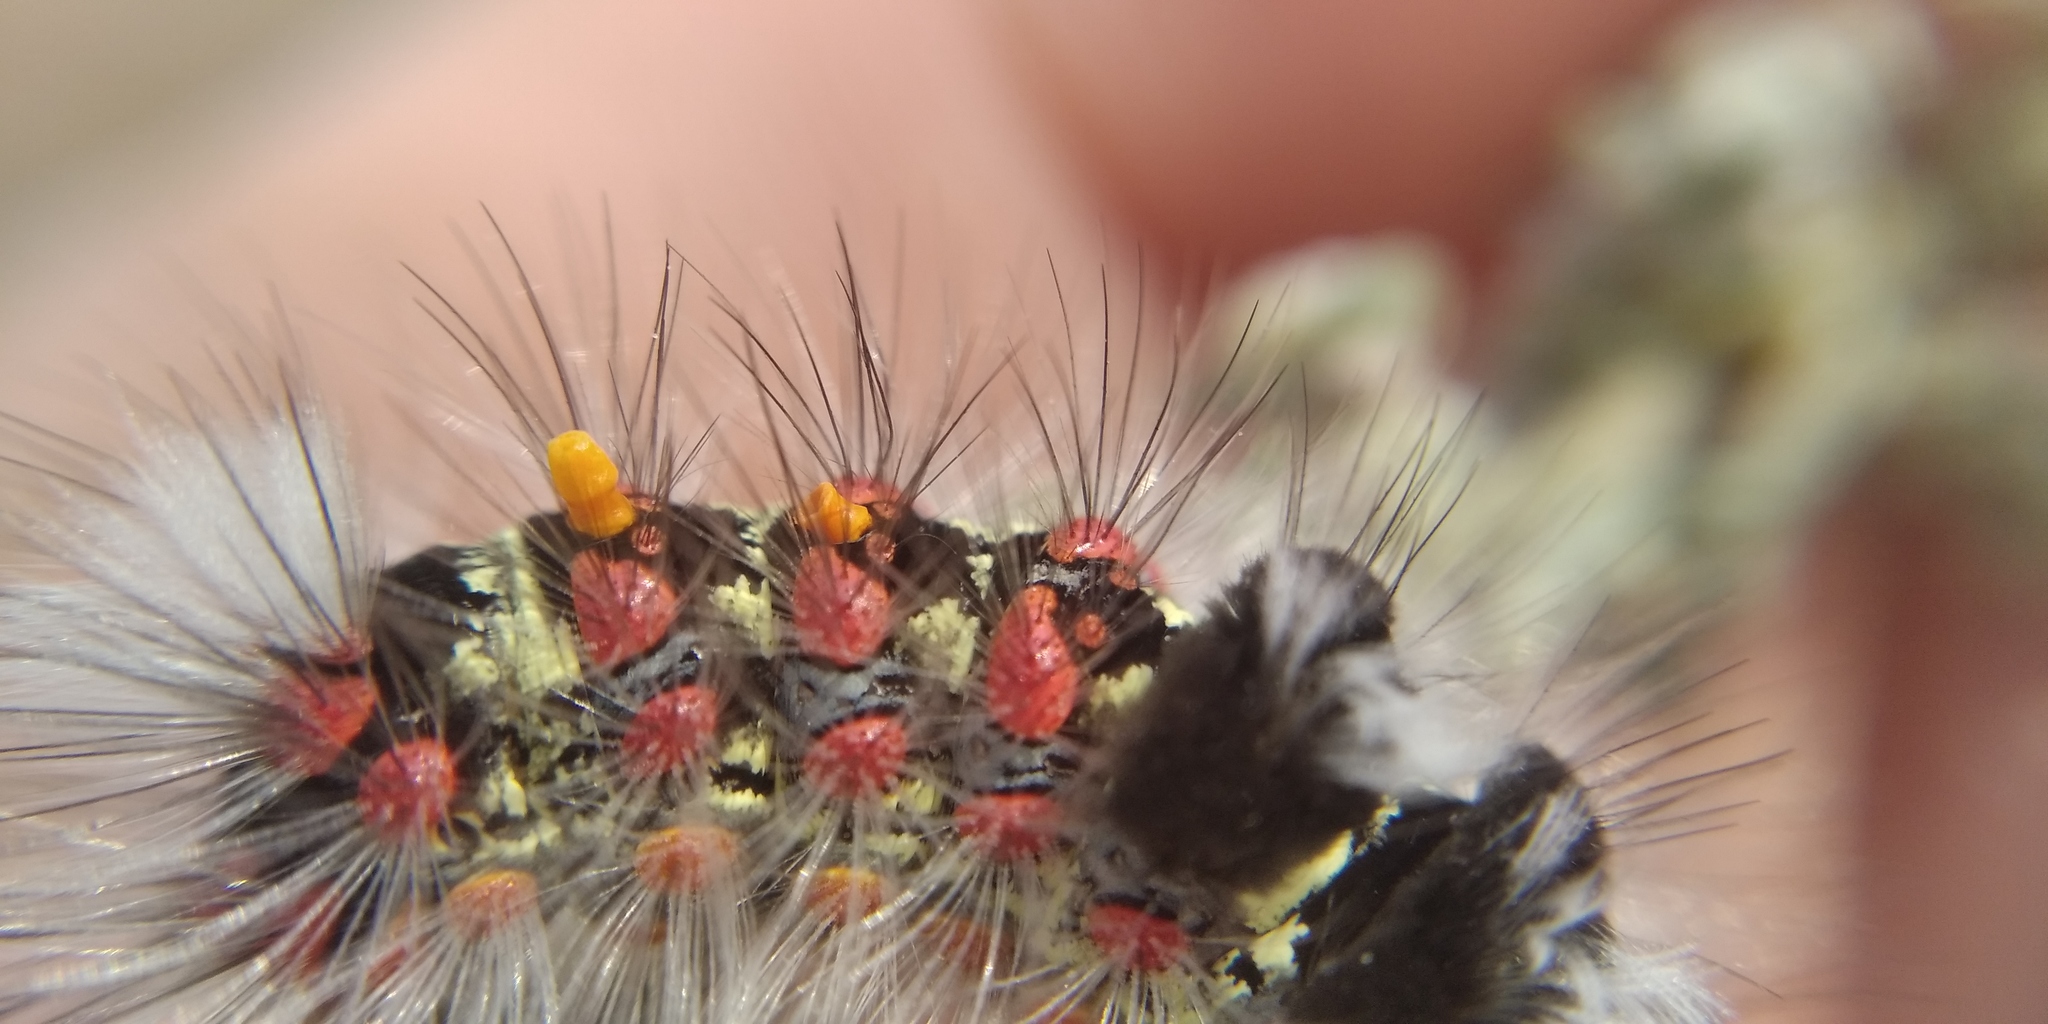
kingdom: Animalia
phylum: Arthropoda
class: Insecta
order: Lepidoptera
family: Erebidae
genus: Orgyia
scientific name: Orgyia dubia
